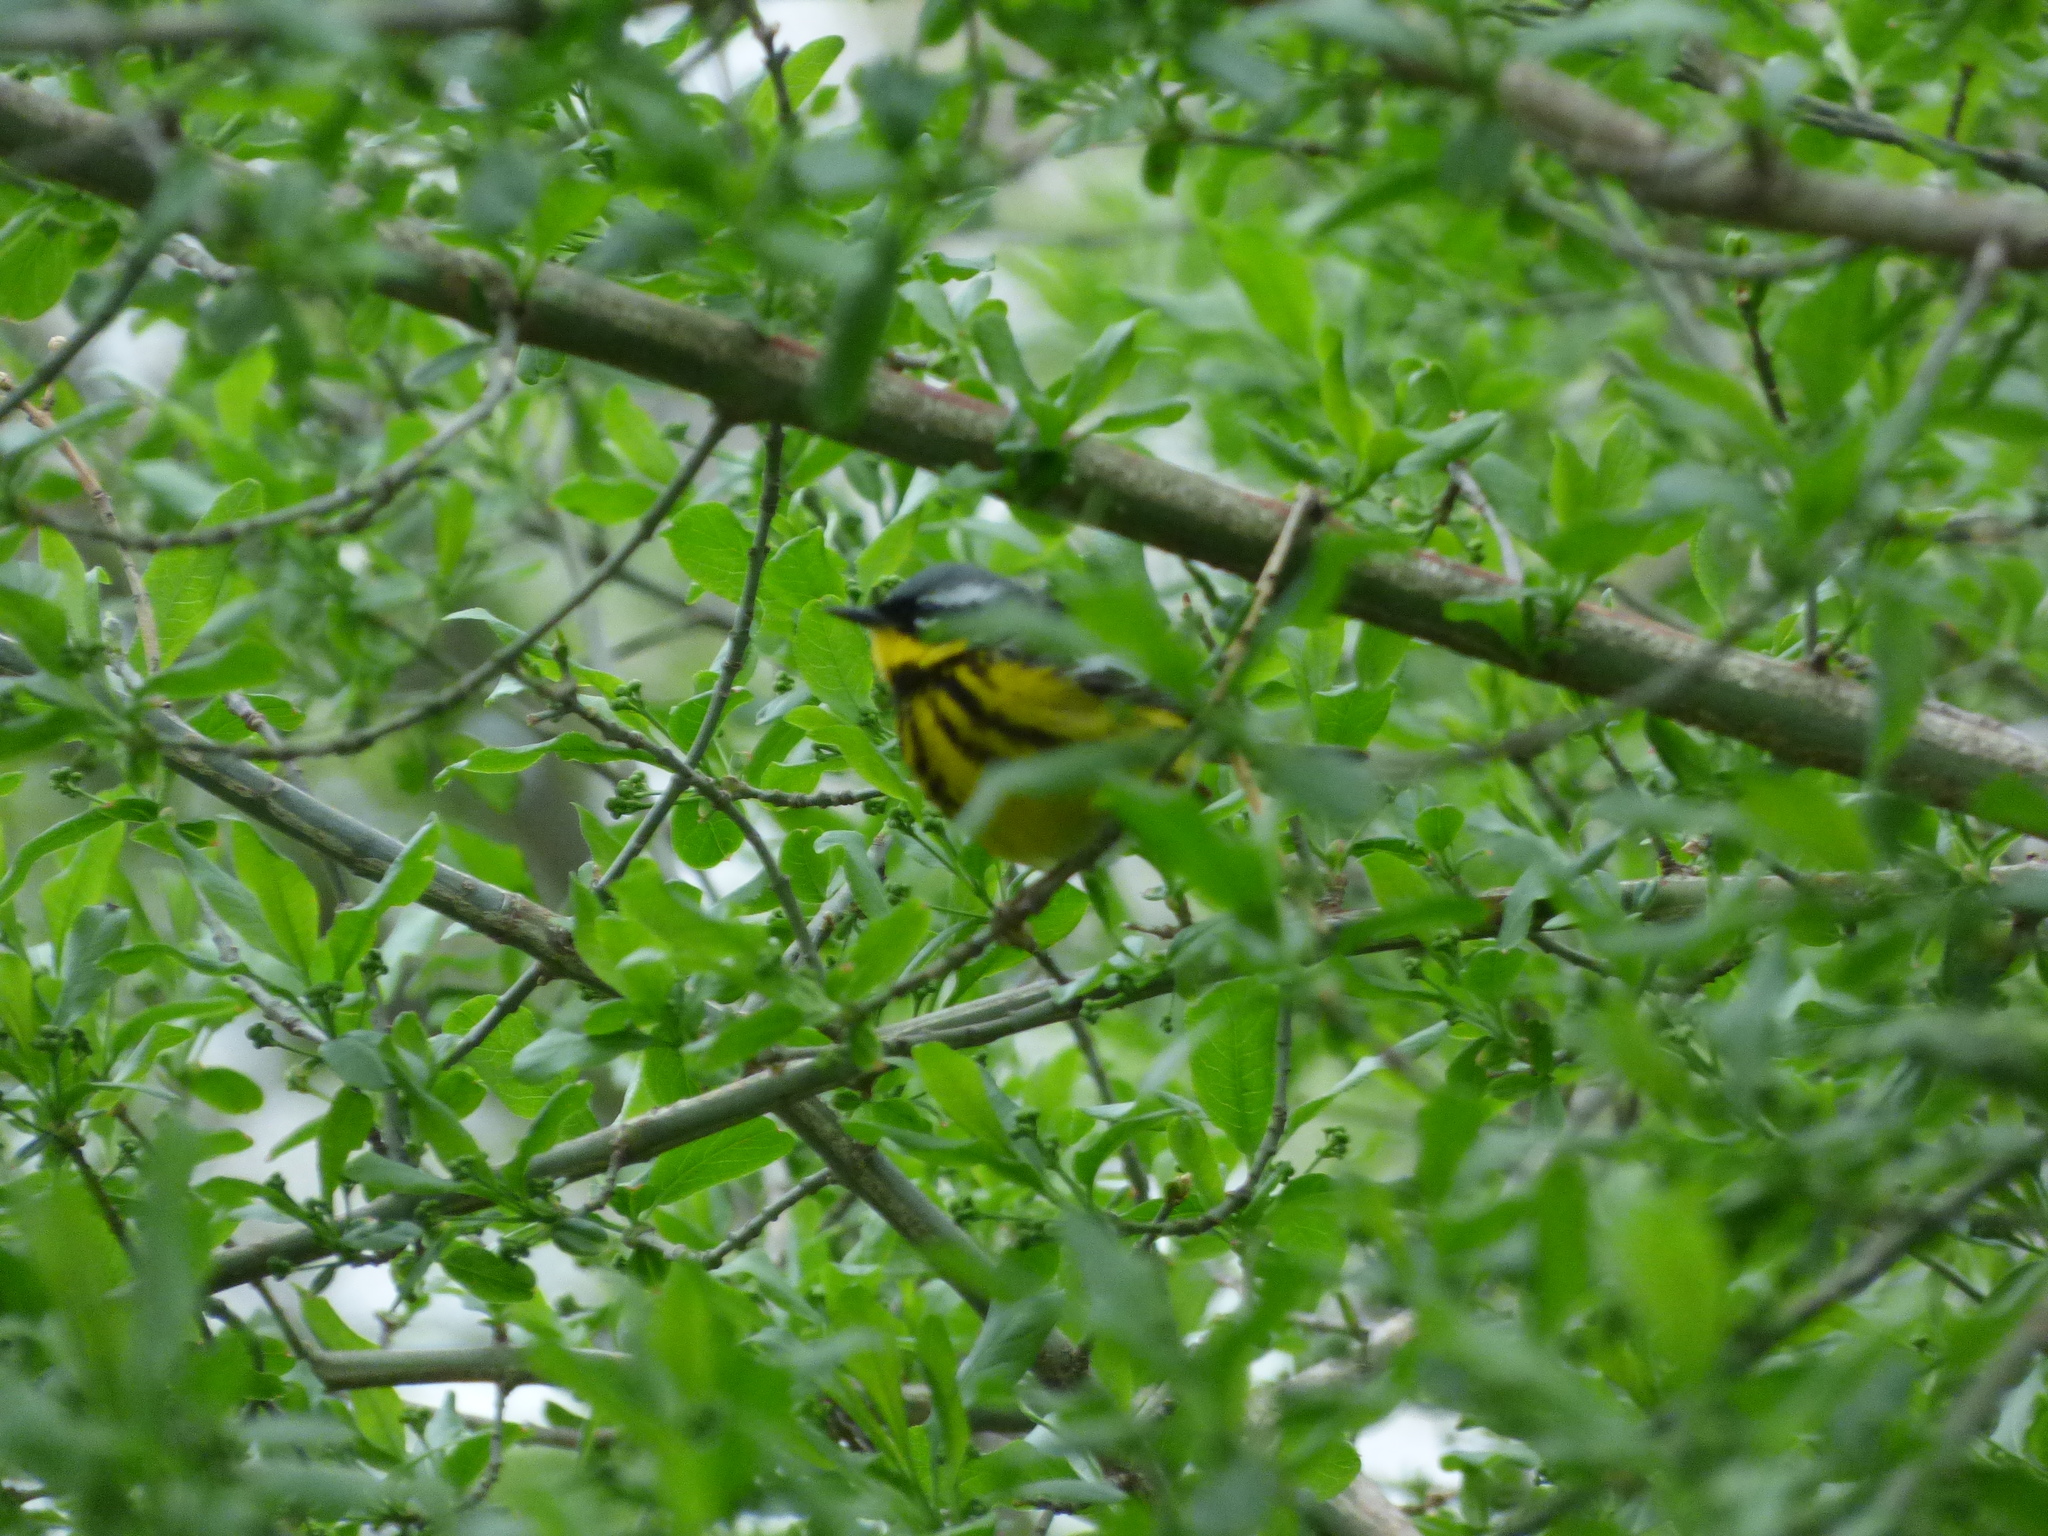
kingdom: Animalia
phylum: Chordata
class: Aves
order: Passeriformes
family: Parulidae
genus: Setophaga
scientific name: Setophaga magnolia
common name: Magnolia warbler
